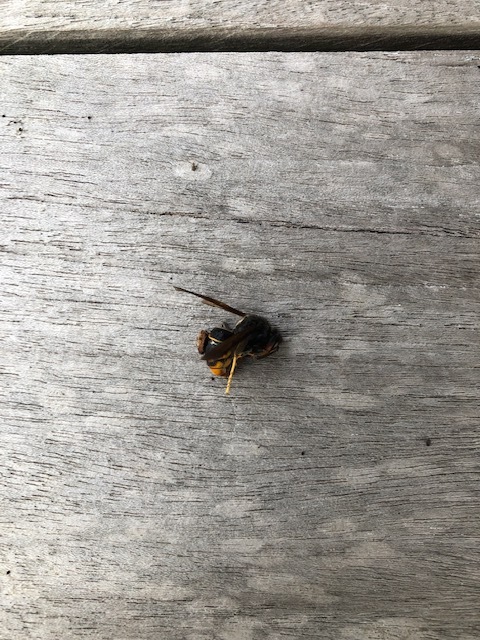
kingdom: Animalia
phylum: Arthropoda
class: Insecta
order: Hymenoptera
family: Vespidae
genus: Vespa
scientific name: Vespa velutina
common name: Asian hornet
